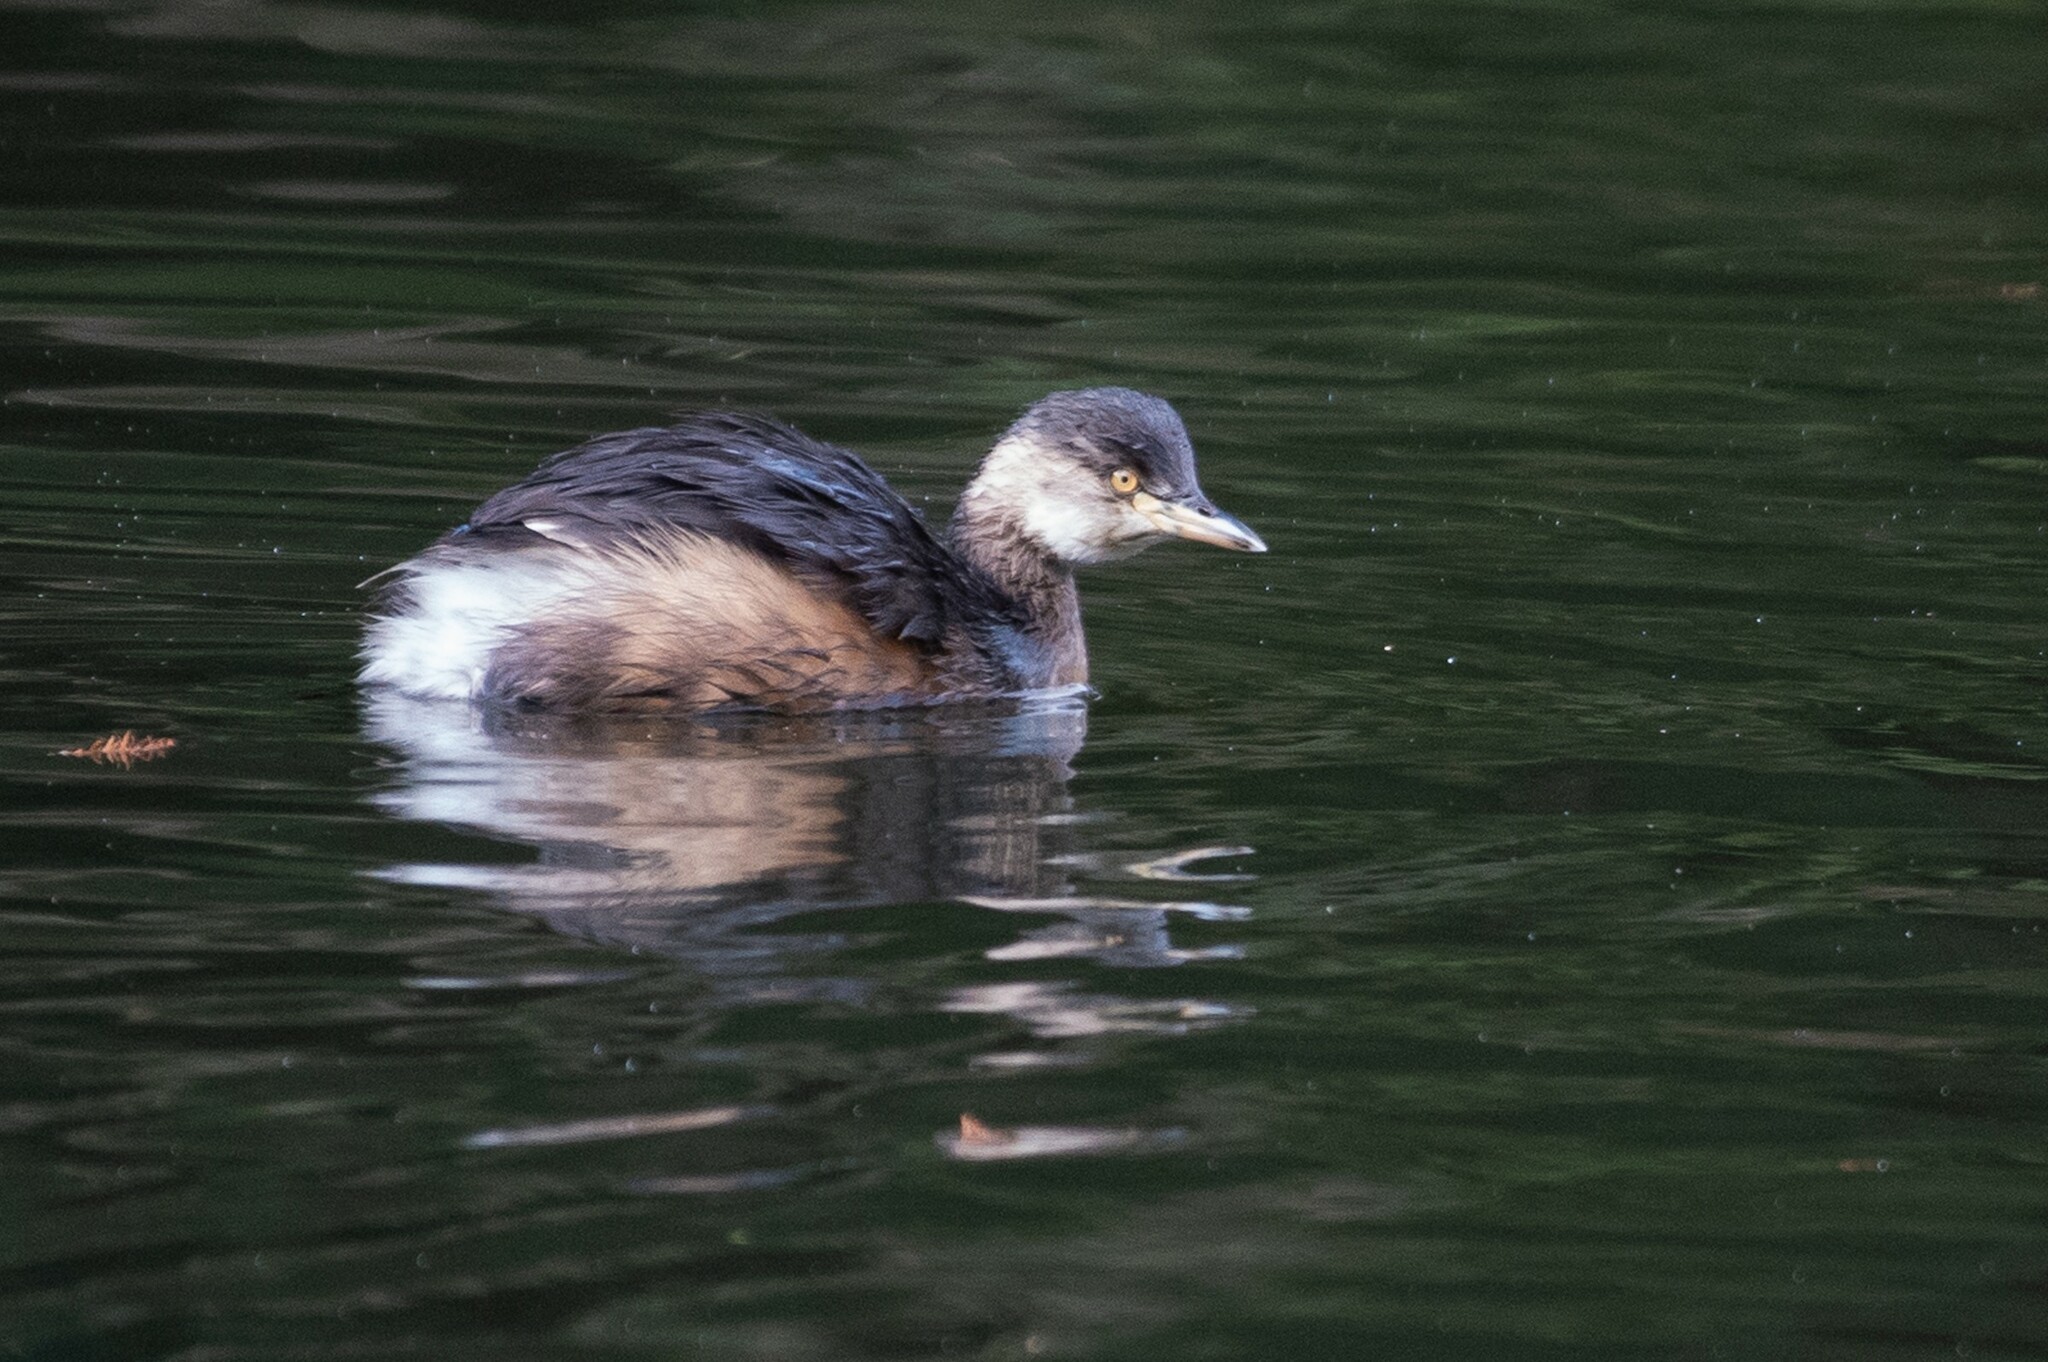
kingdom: Animalia
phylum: Chordata
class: Aves
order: Podicipediformes
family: Podicipedidae
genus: Tachybaptus
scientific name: Tachybaptus novaehollandiae
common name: Australasian grebe
